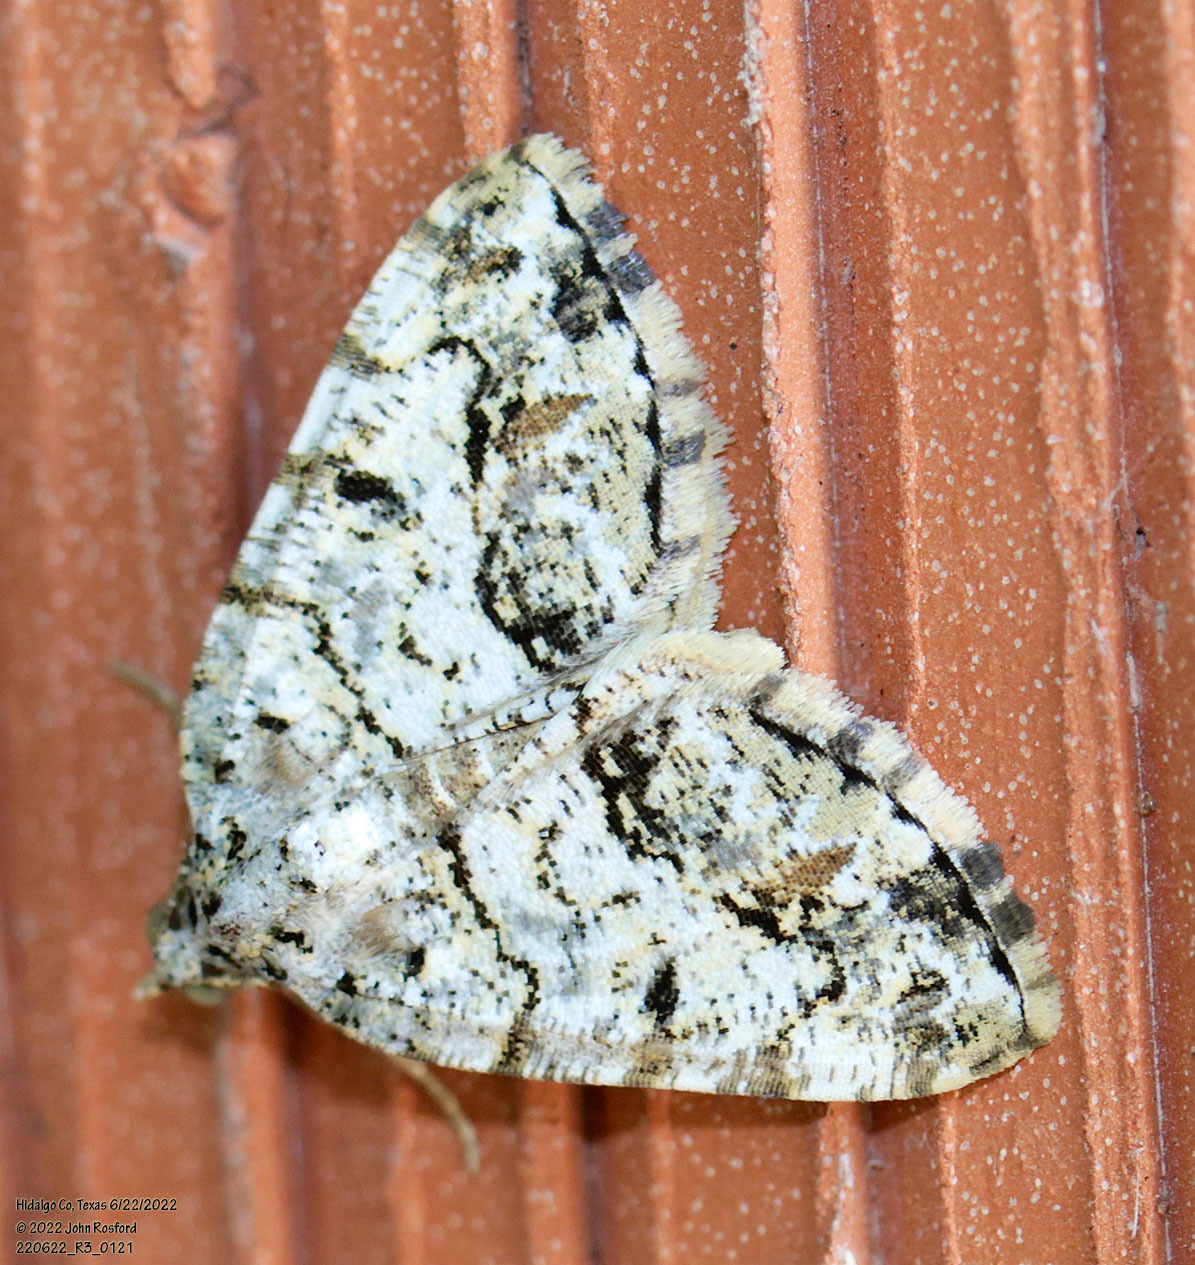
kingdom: Animalia
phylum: Arthropoda
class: Insecta
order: Lepidoptera
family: Geometridae
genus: Macaria
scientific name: Macaria graphidaria
